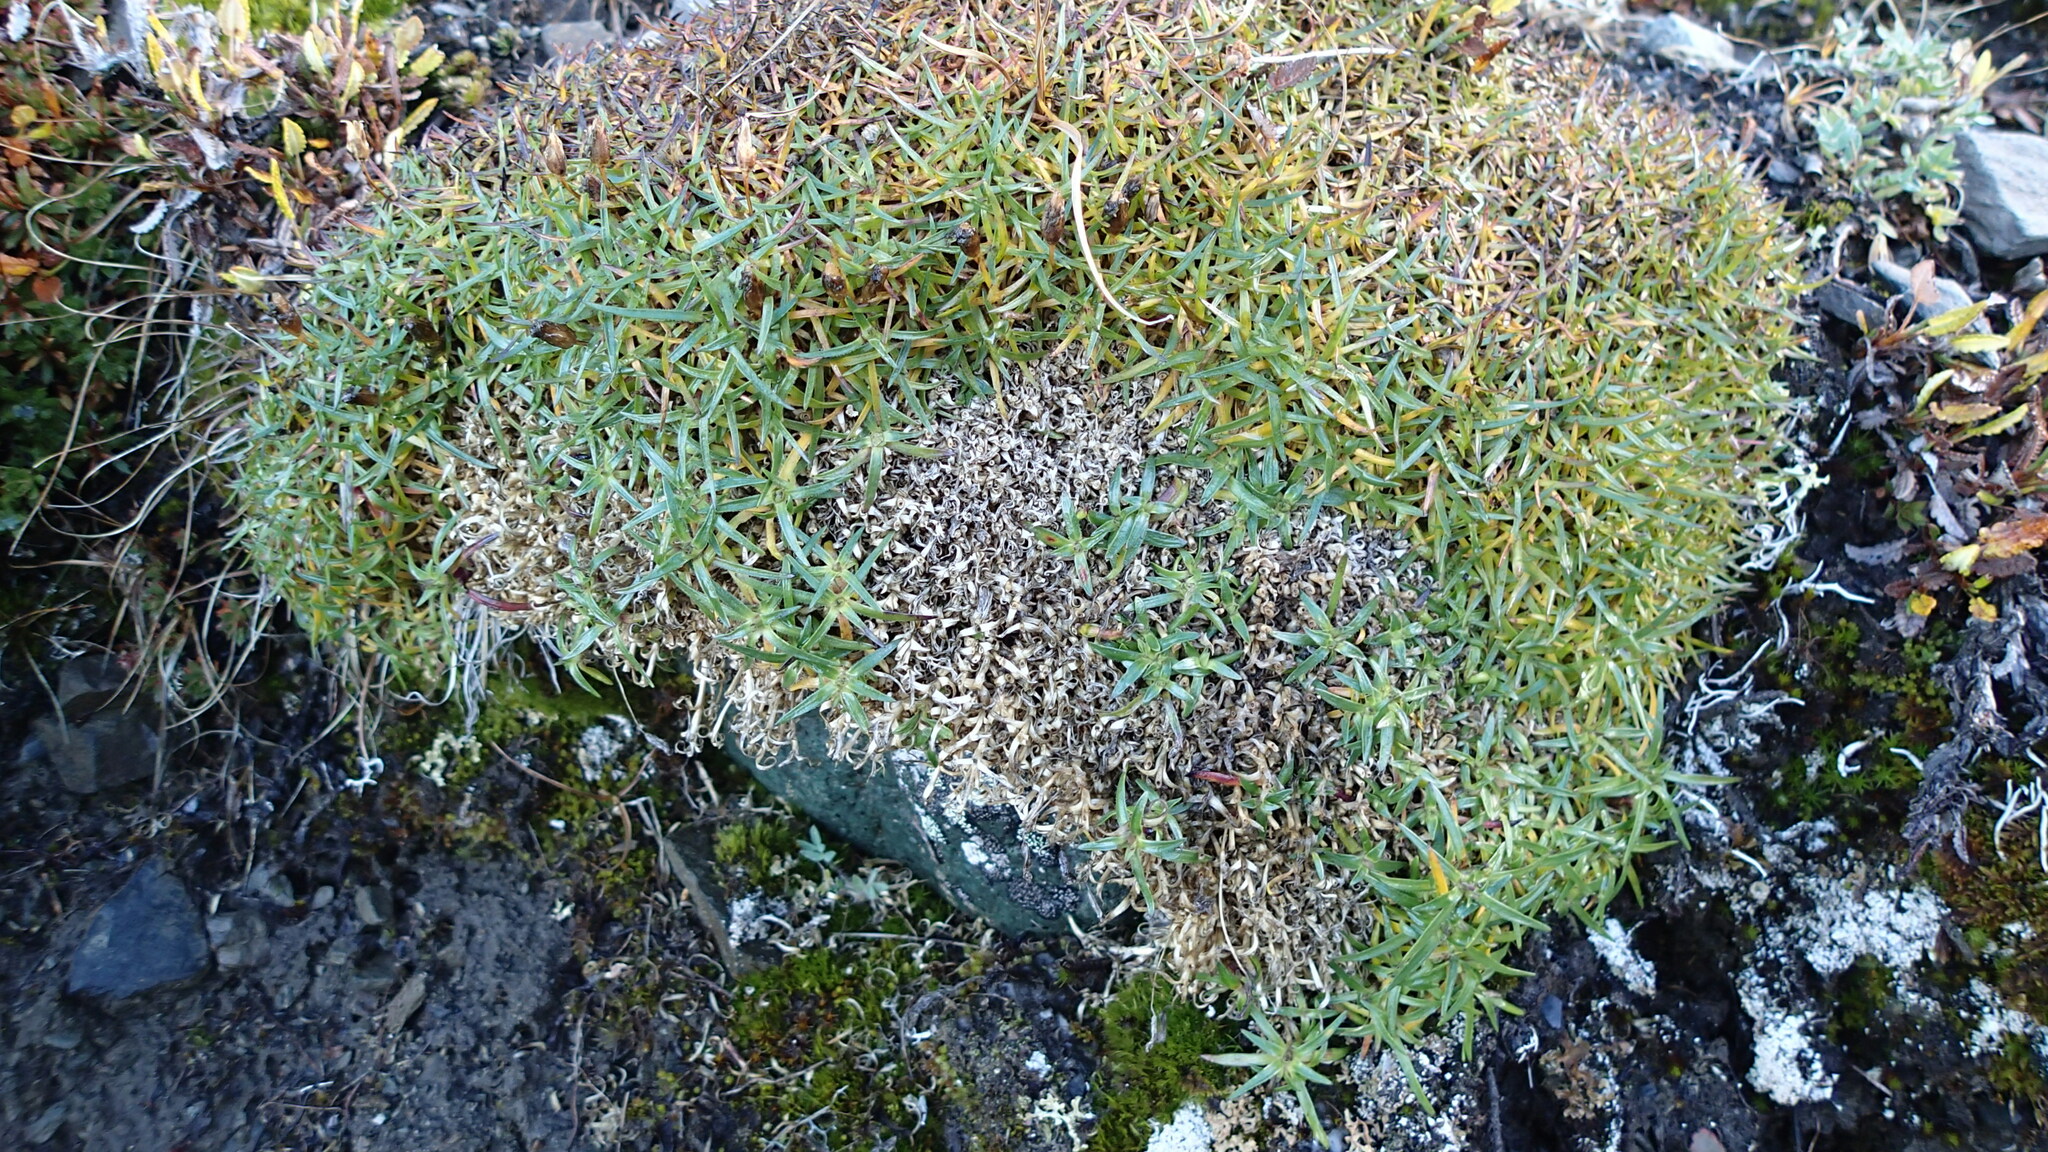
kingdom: Plantae
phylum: Tracheophyta
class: Magnoliopsida
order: Caryophyllales
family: Caryophyllaceae
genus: Silene
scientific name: Silene acaulis
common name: Moss campion
